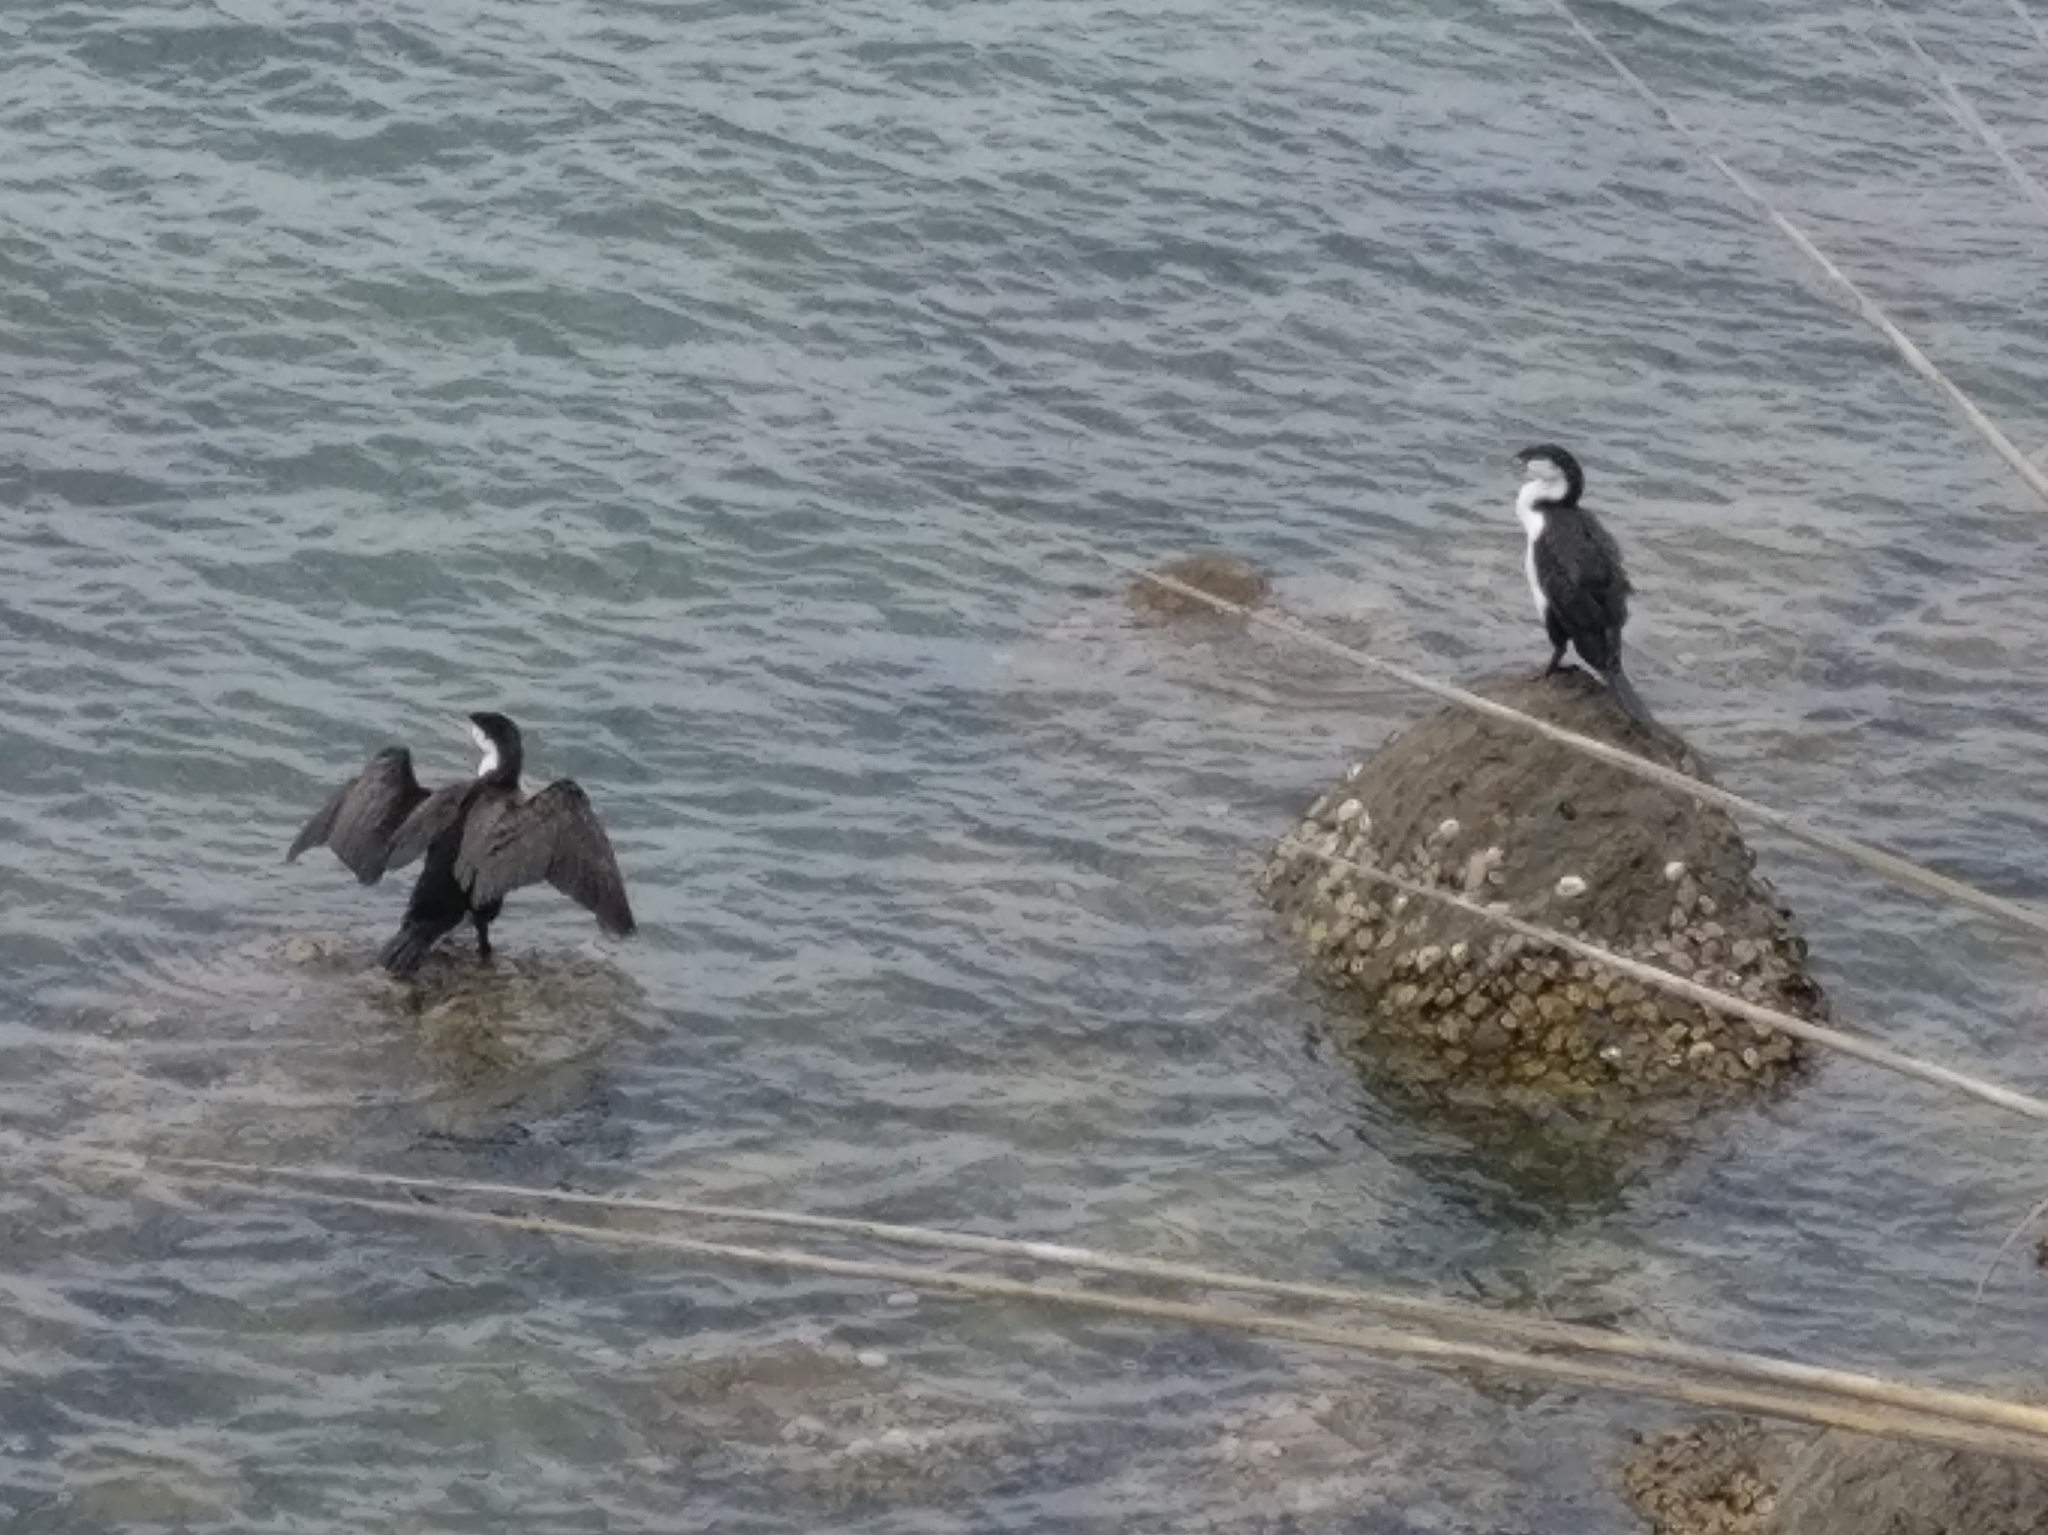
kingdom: Animalia
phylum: Chordata
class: Aves
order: Suliformes
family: Phalacrocoracidae
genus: Phalacrocorax
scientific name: Phalacrocorax varius
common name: Pied cormorant
